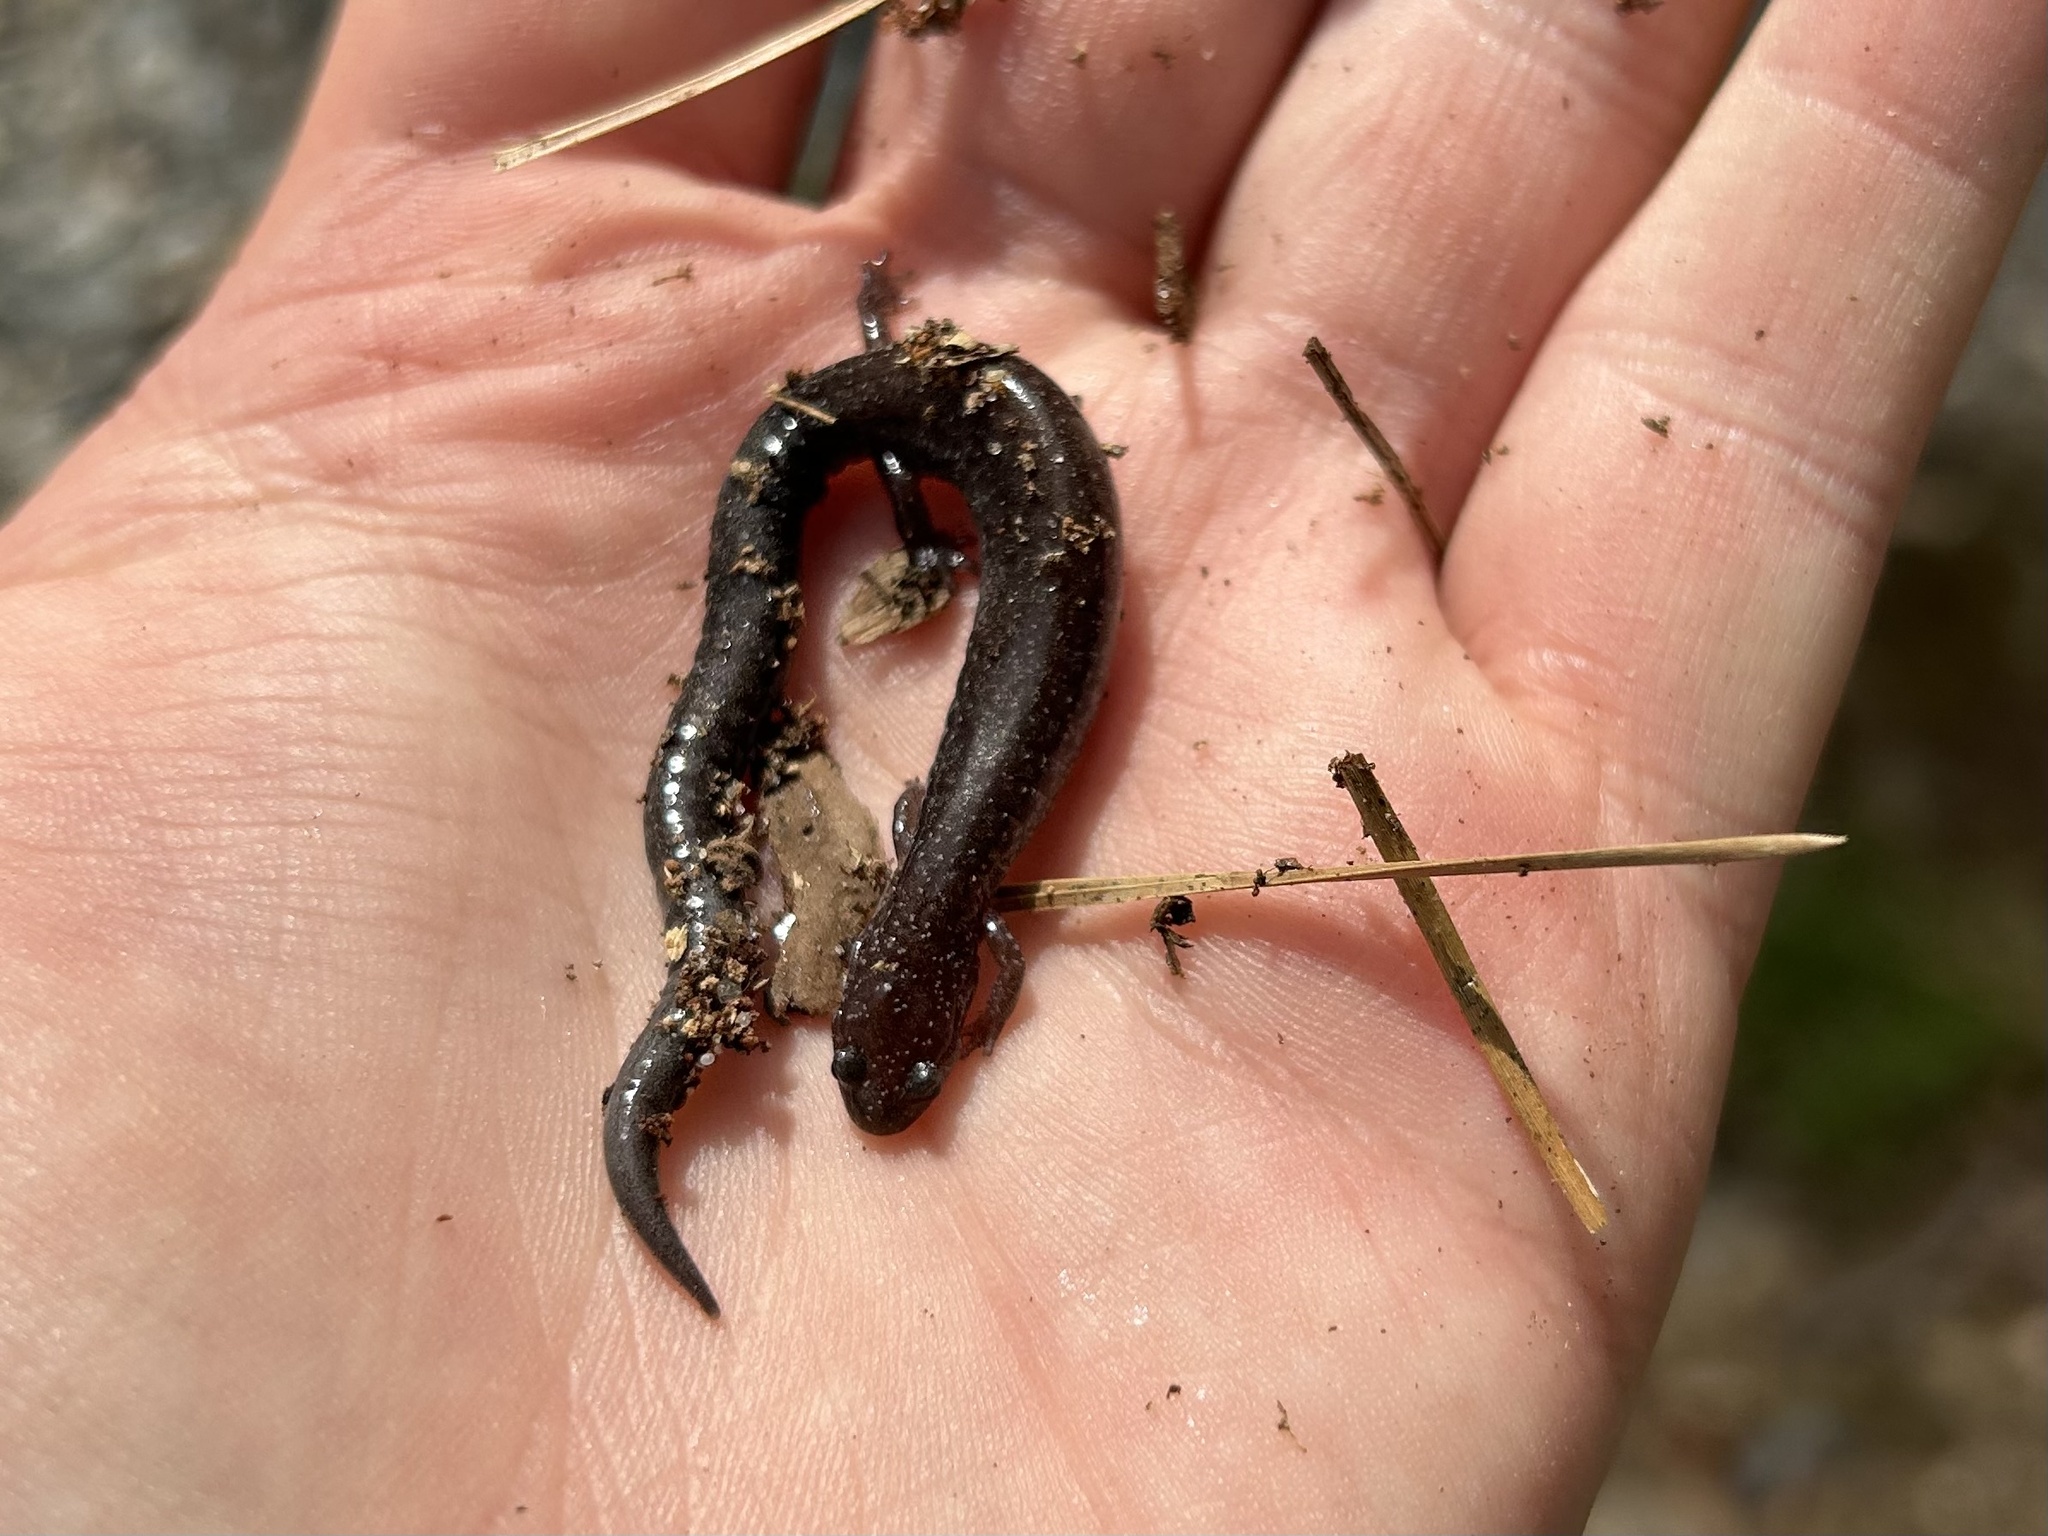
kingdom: Animalia
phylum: Chordata
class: Amphibia
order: Caudata
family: Plethodontidae
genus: Plethodon
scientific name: Plethodon cinereus
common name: Redback salamander
